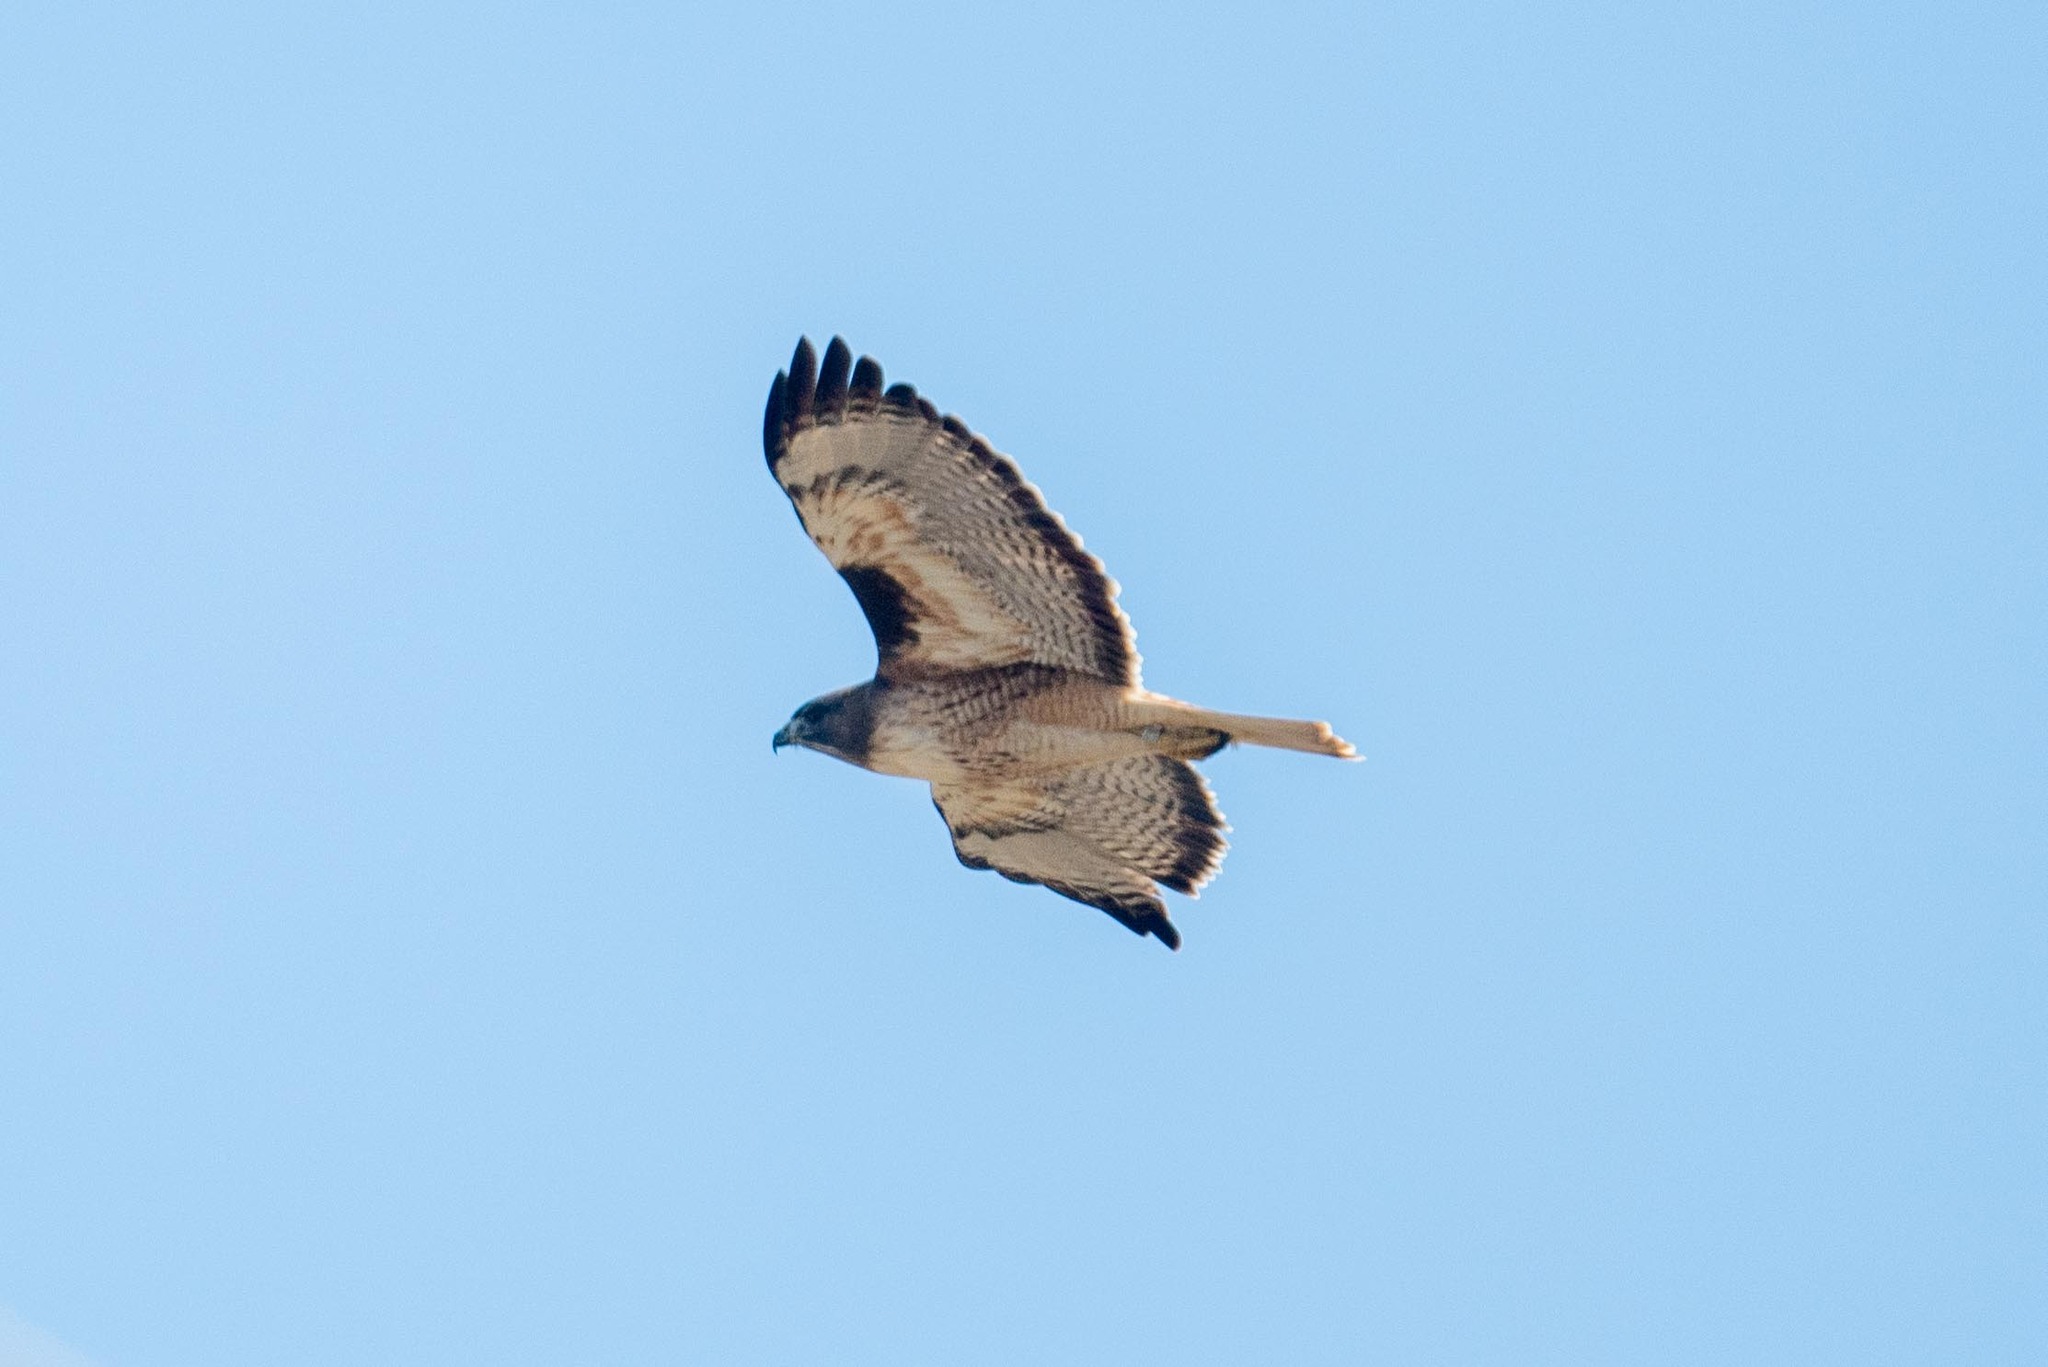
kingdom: Animalia
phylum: Chordata
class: Aves
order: Accipitriformes
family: Accipitridae
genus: Buteo
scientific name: Buteo jamaicensis
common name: Red-tailed hawk
